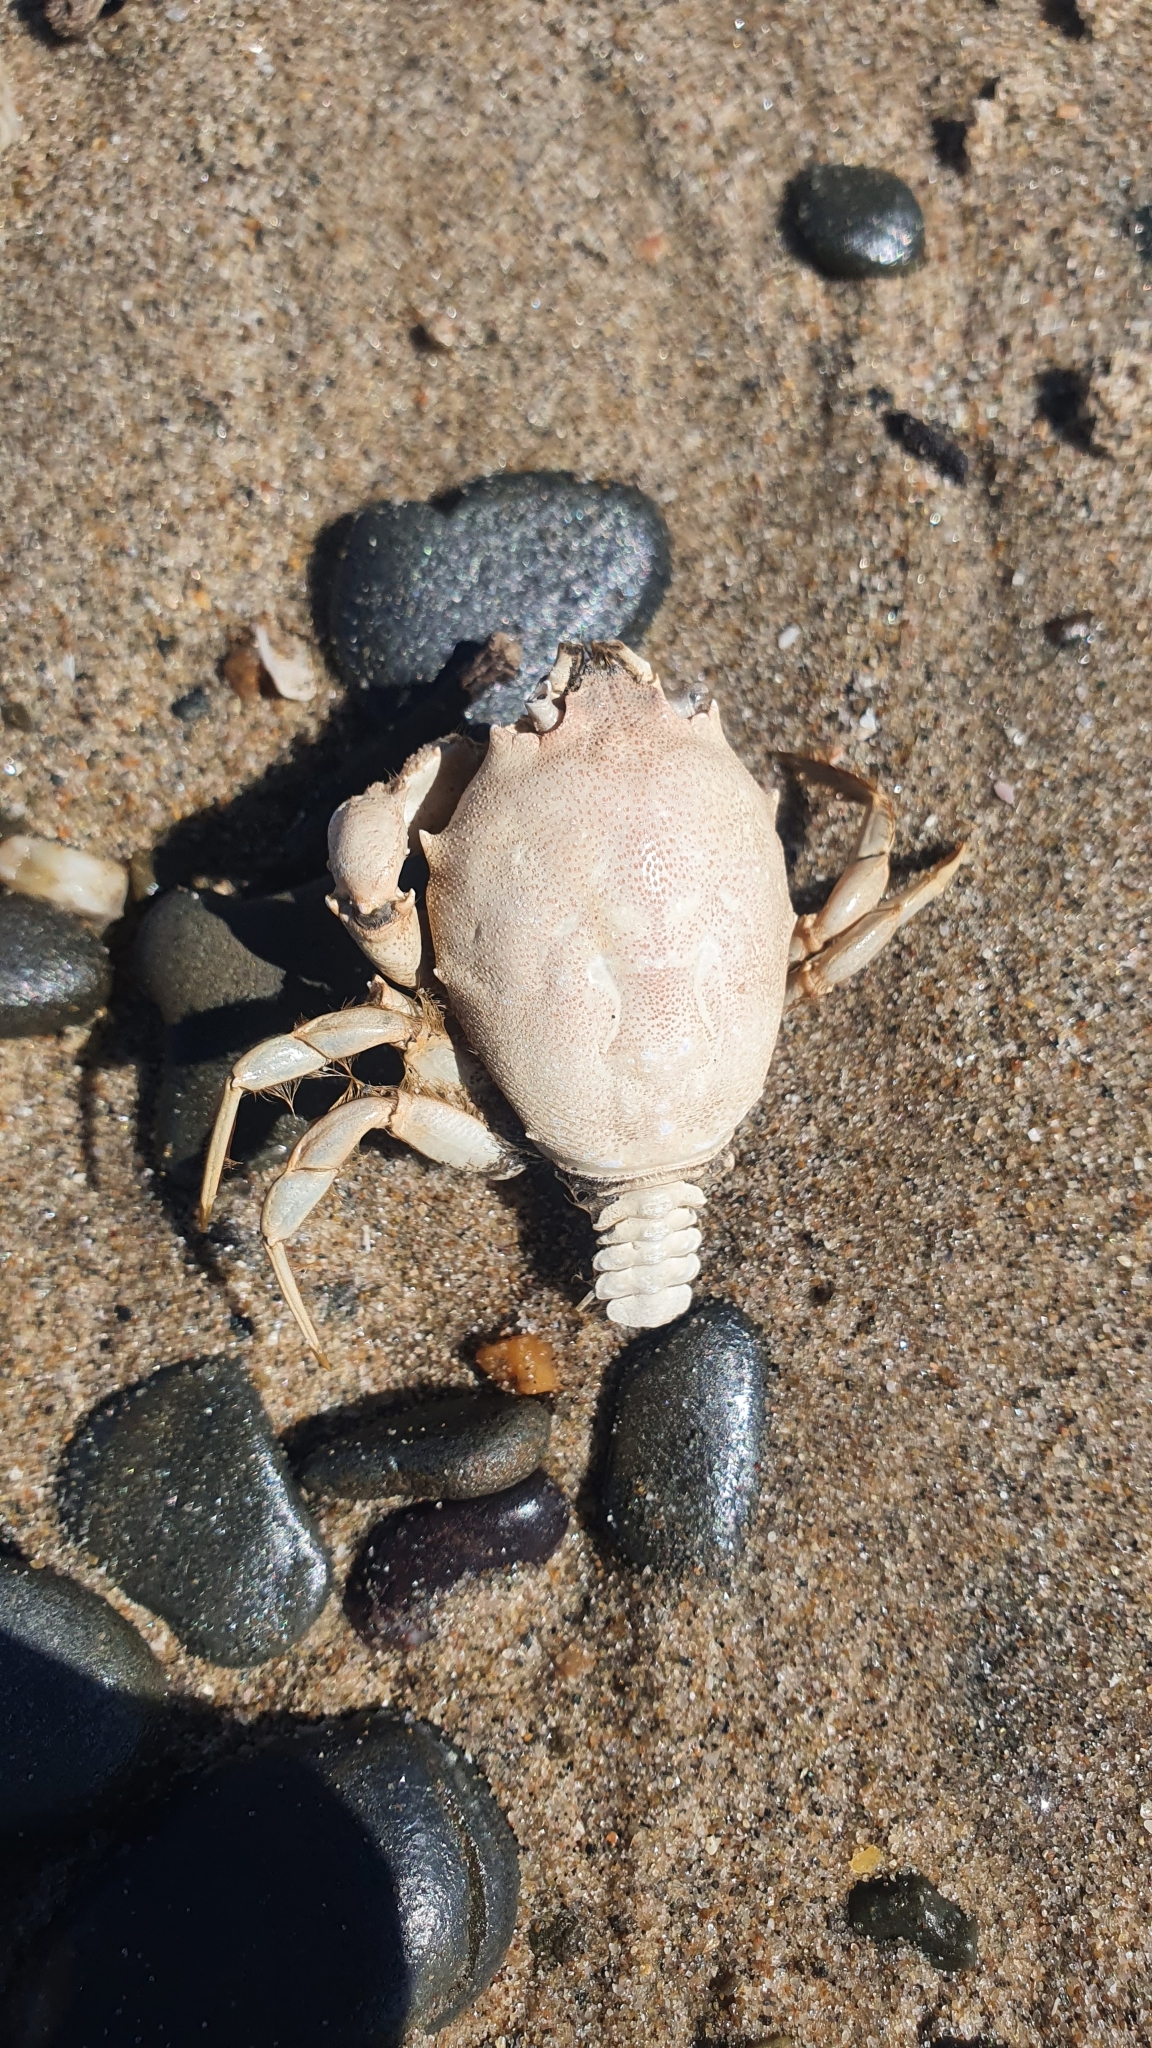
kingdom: Animalia
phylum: Arthropoda
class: Malacostraca
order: Decapoda
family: Corystidae
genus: Corystes
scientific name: Corystes cassivelaunus
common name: Masked crab
